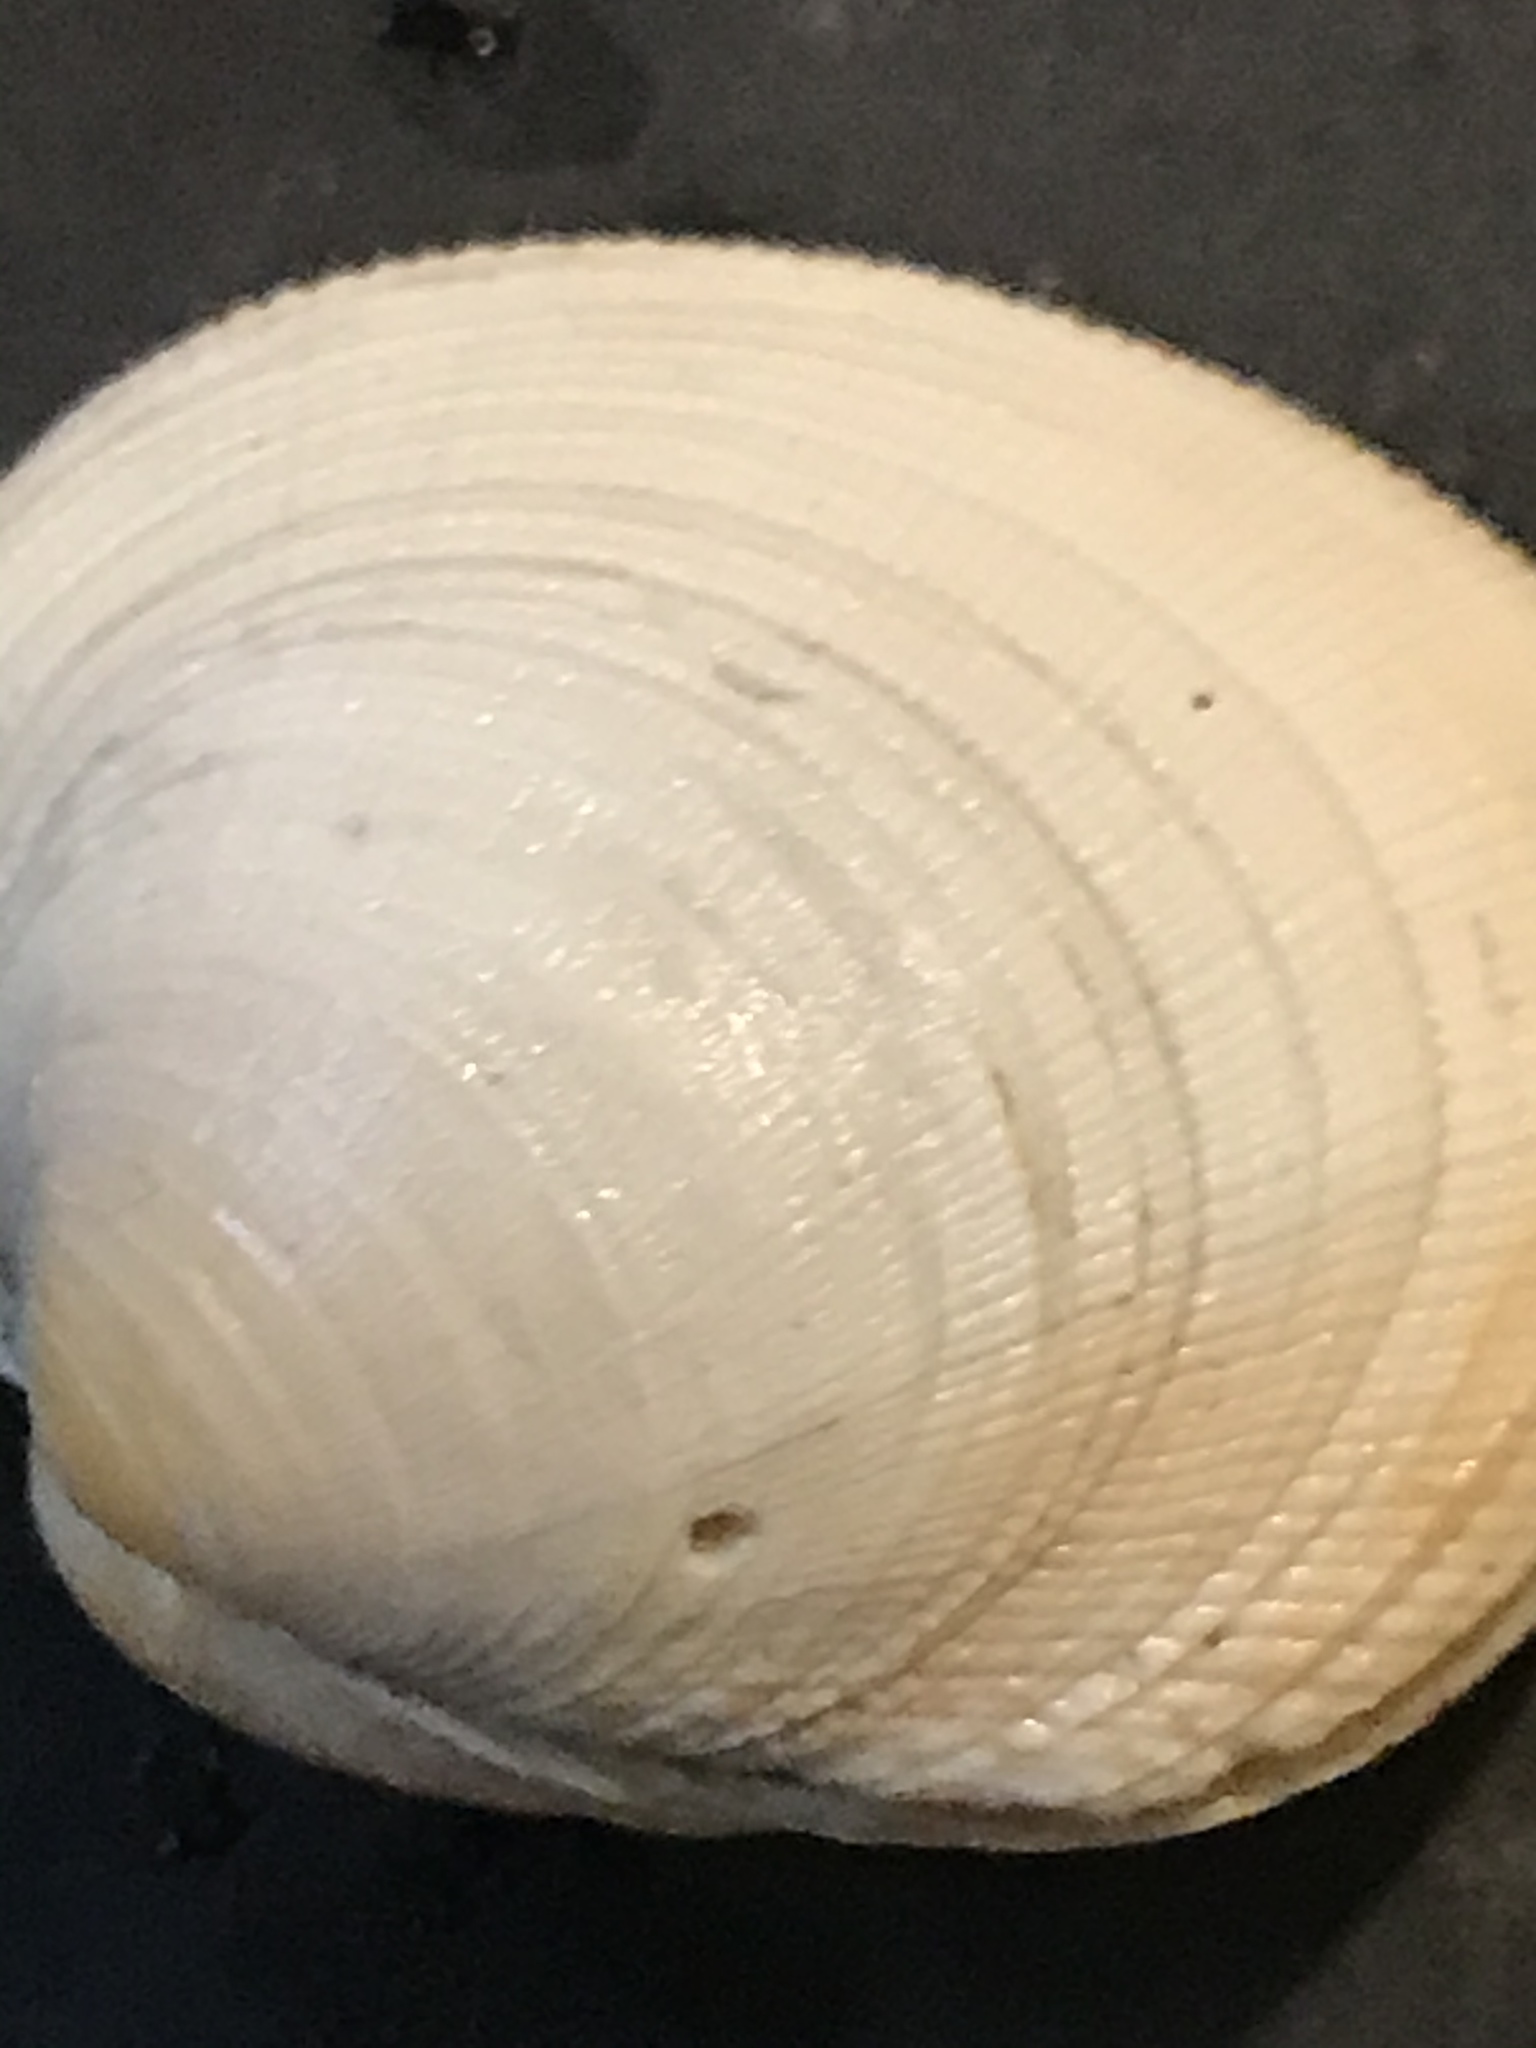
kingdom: Animalia
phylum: Mollusca
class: Bivalvia
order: Venerida
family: Veneridae
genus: Leukoma
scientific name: Leukoma staminea
